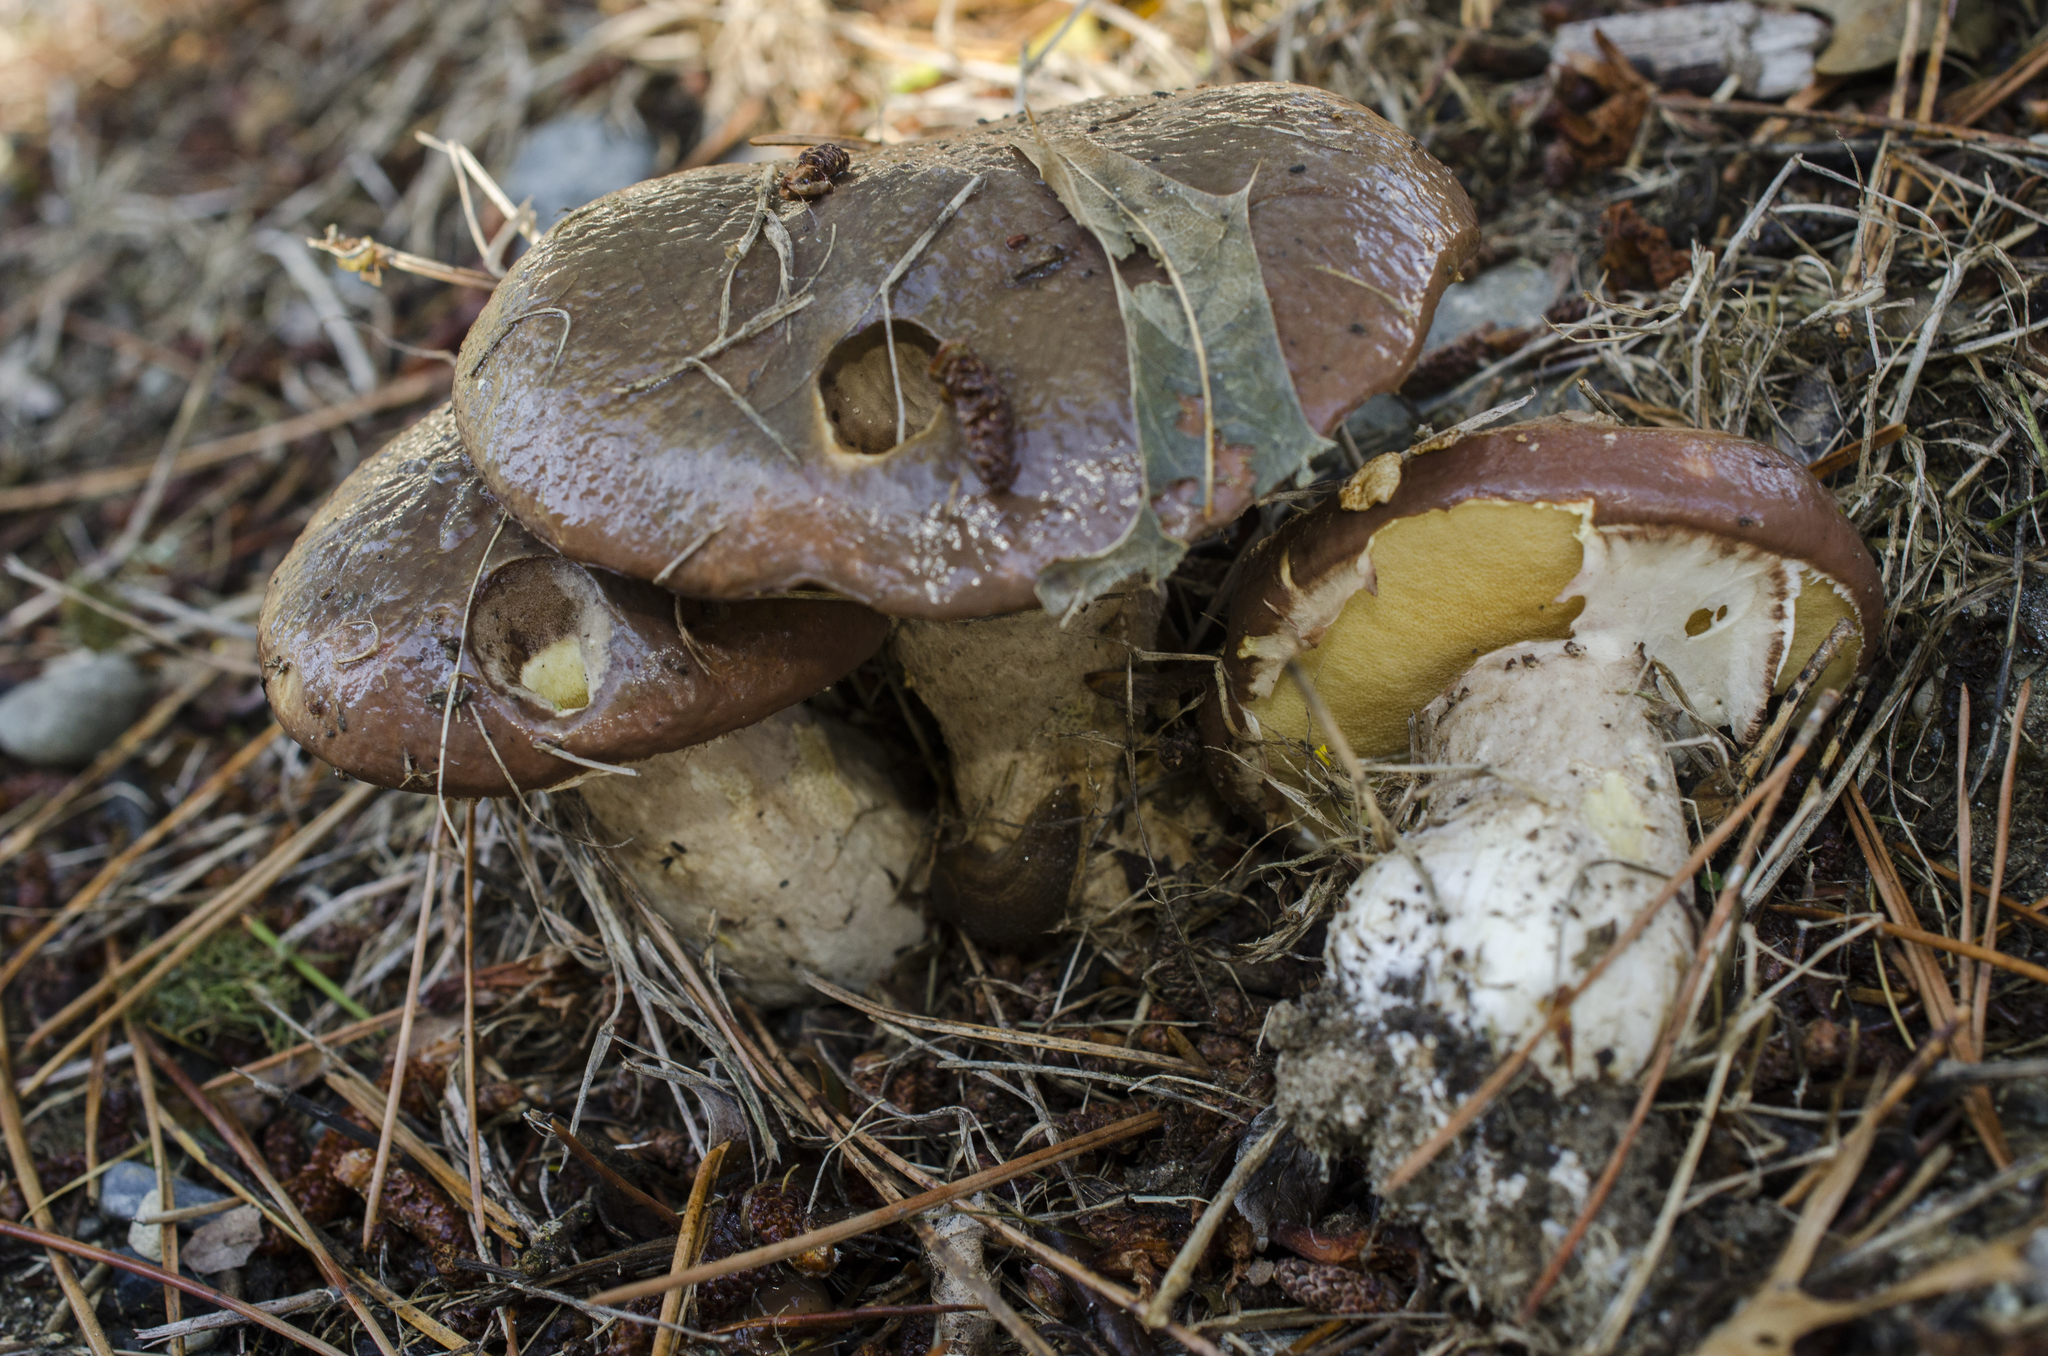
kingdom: Fungi
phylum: Basidiomycota
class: Agaricomycetes
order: Boletales
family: Suillaceae
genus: Suillus
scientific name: Suillus luteus
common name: Slippery jack
